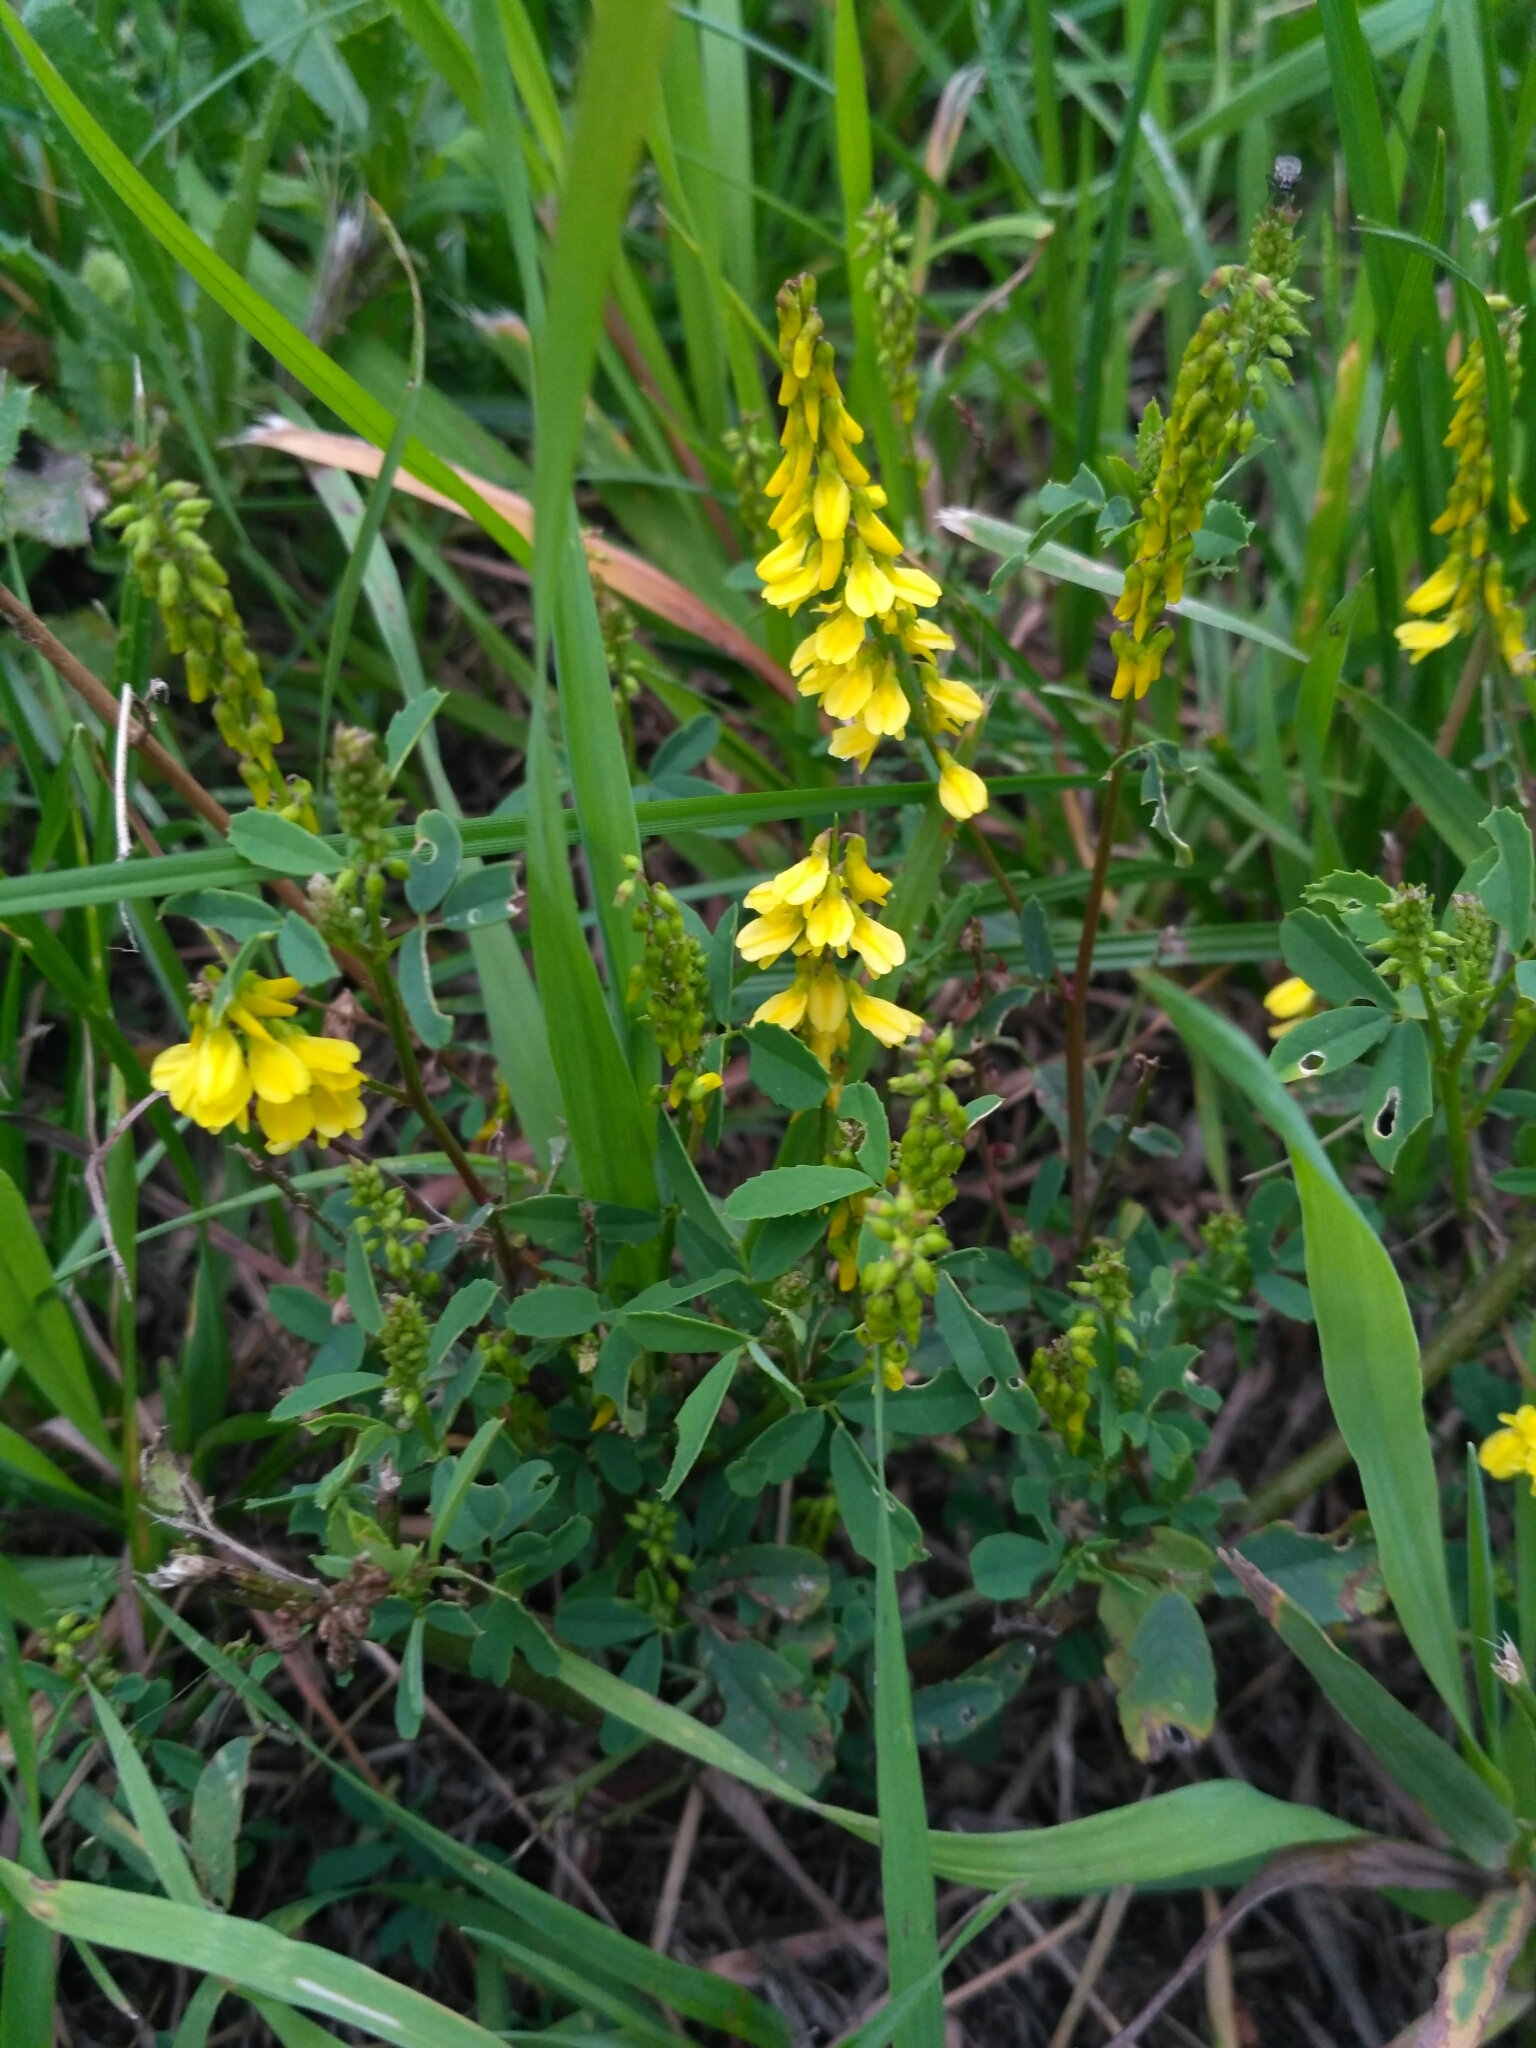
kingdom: Plantae
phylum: Tracheophyta
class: Magnoliopsida
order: Fabales
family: Fabaceae
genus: Melilotus
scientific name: Melilotus officinalis
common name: Sweetclover
